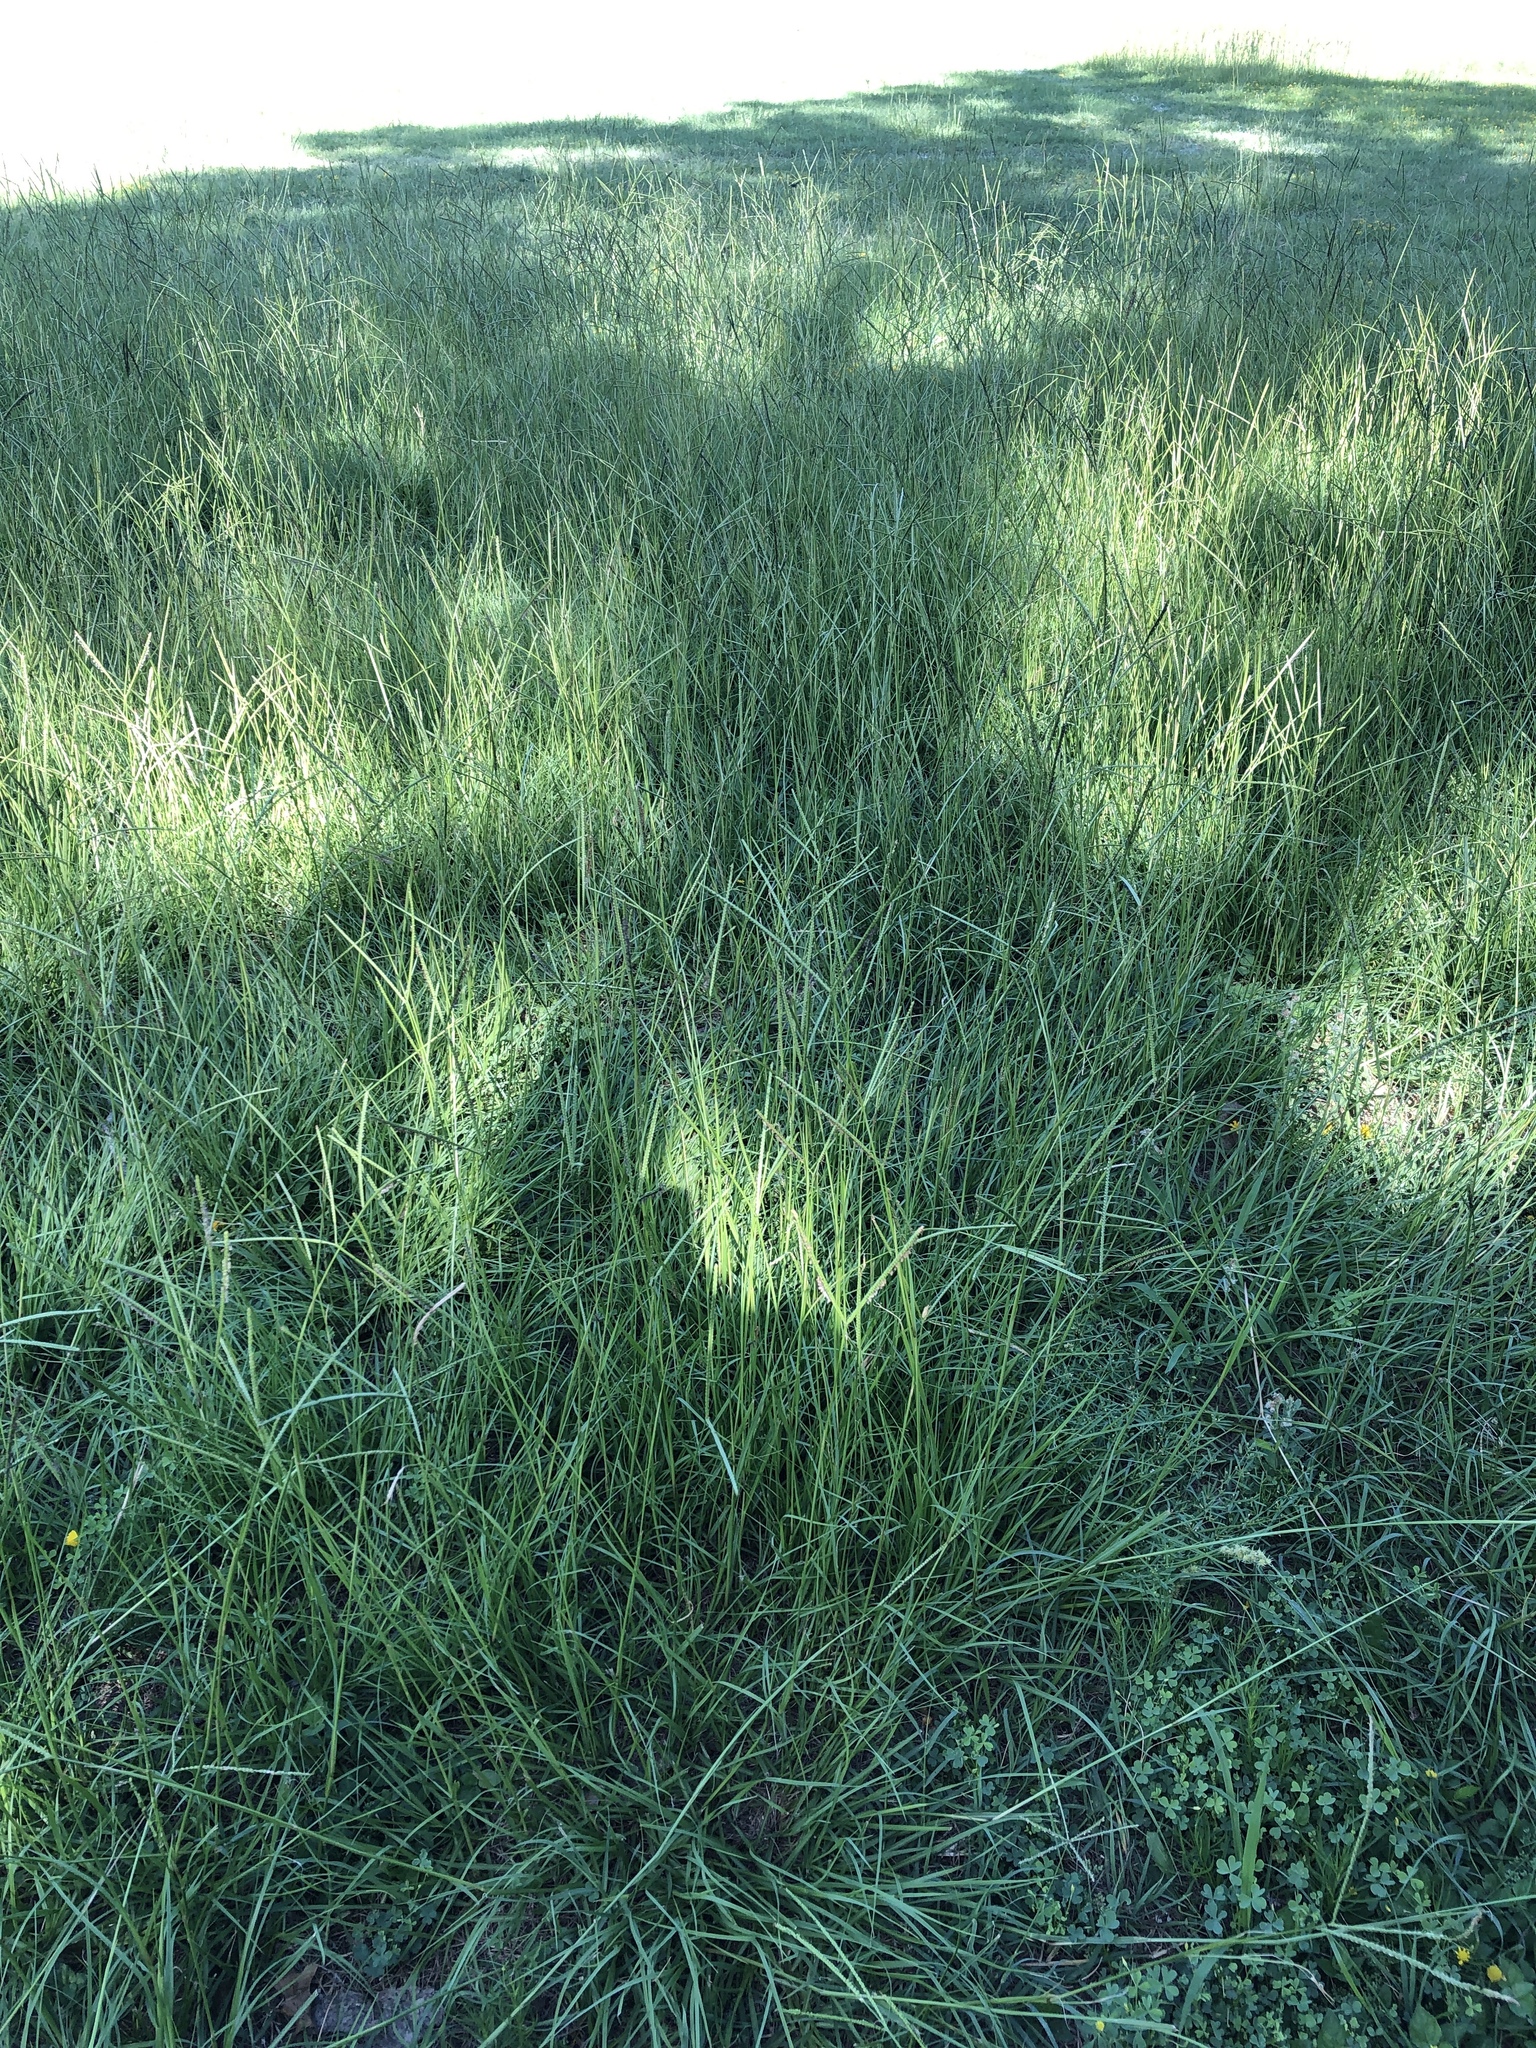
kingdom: Plantae
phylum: Tracheophyta
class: Liliopsida
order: Poales
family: Poaceae
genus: Paspalum
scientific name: Paspalum notatum
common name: Bahiagrass
